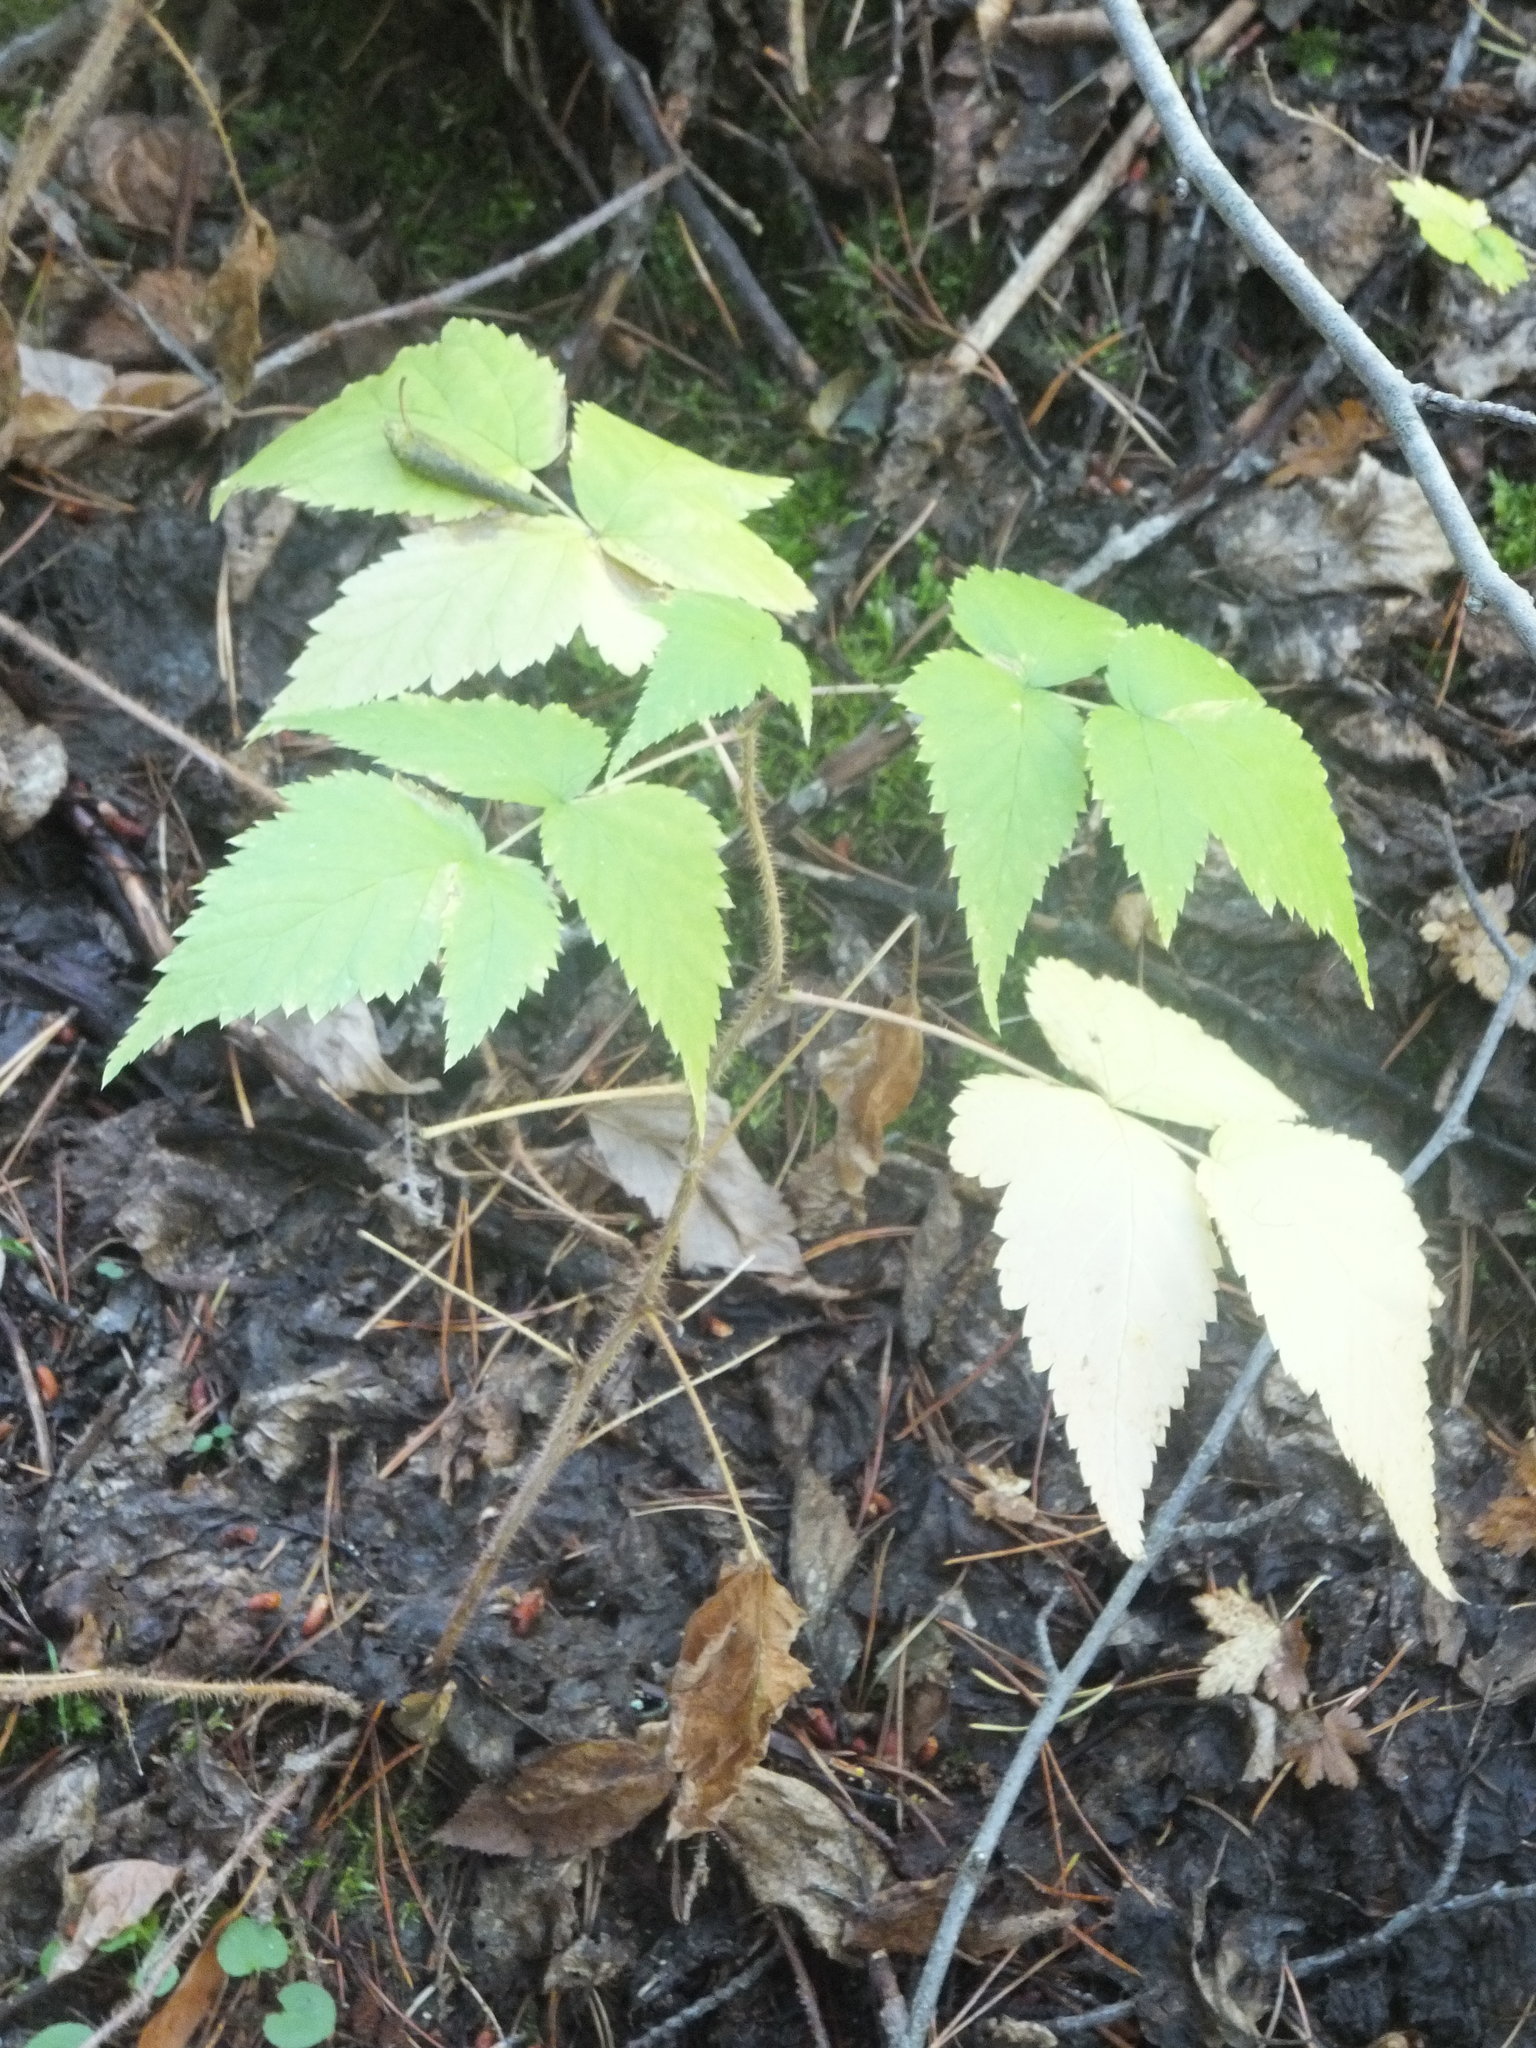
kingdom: Plantae
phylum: Tracheophyta
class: Magnoliopsida
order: Rosales
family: Rosaceae
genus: Rubus
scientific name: Rubus idaeus
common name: Raspberry
